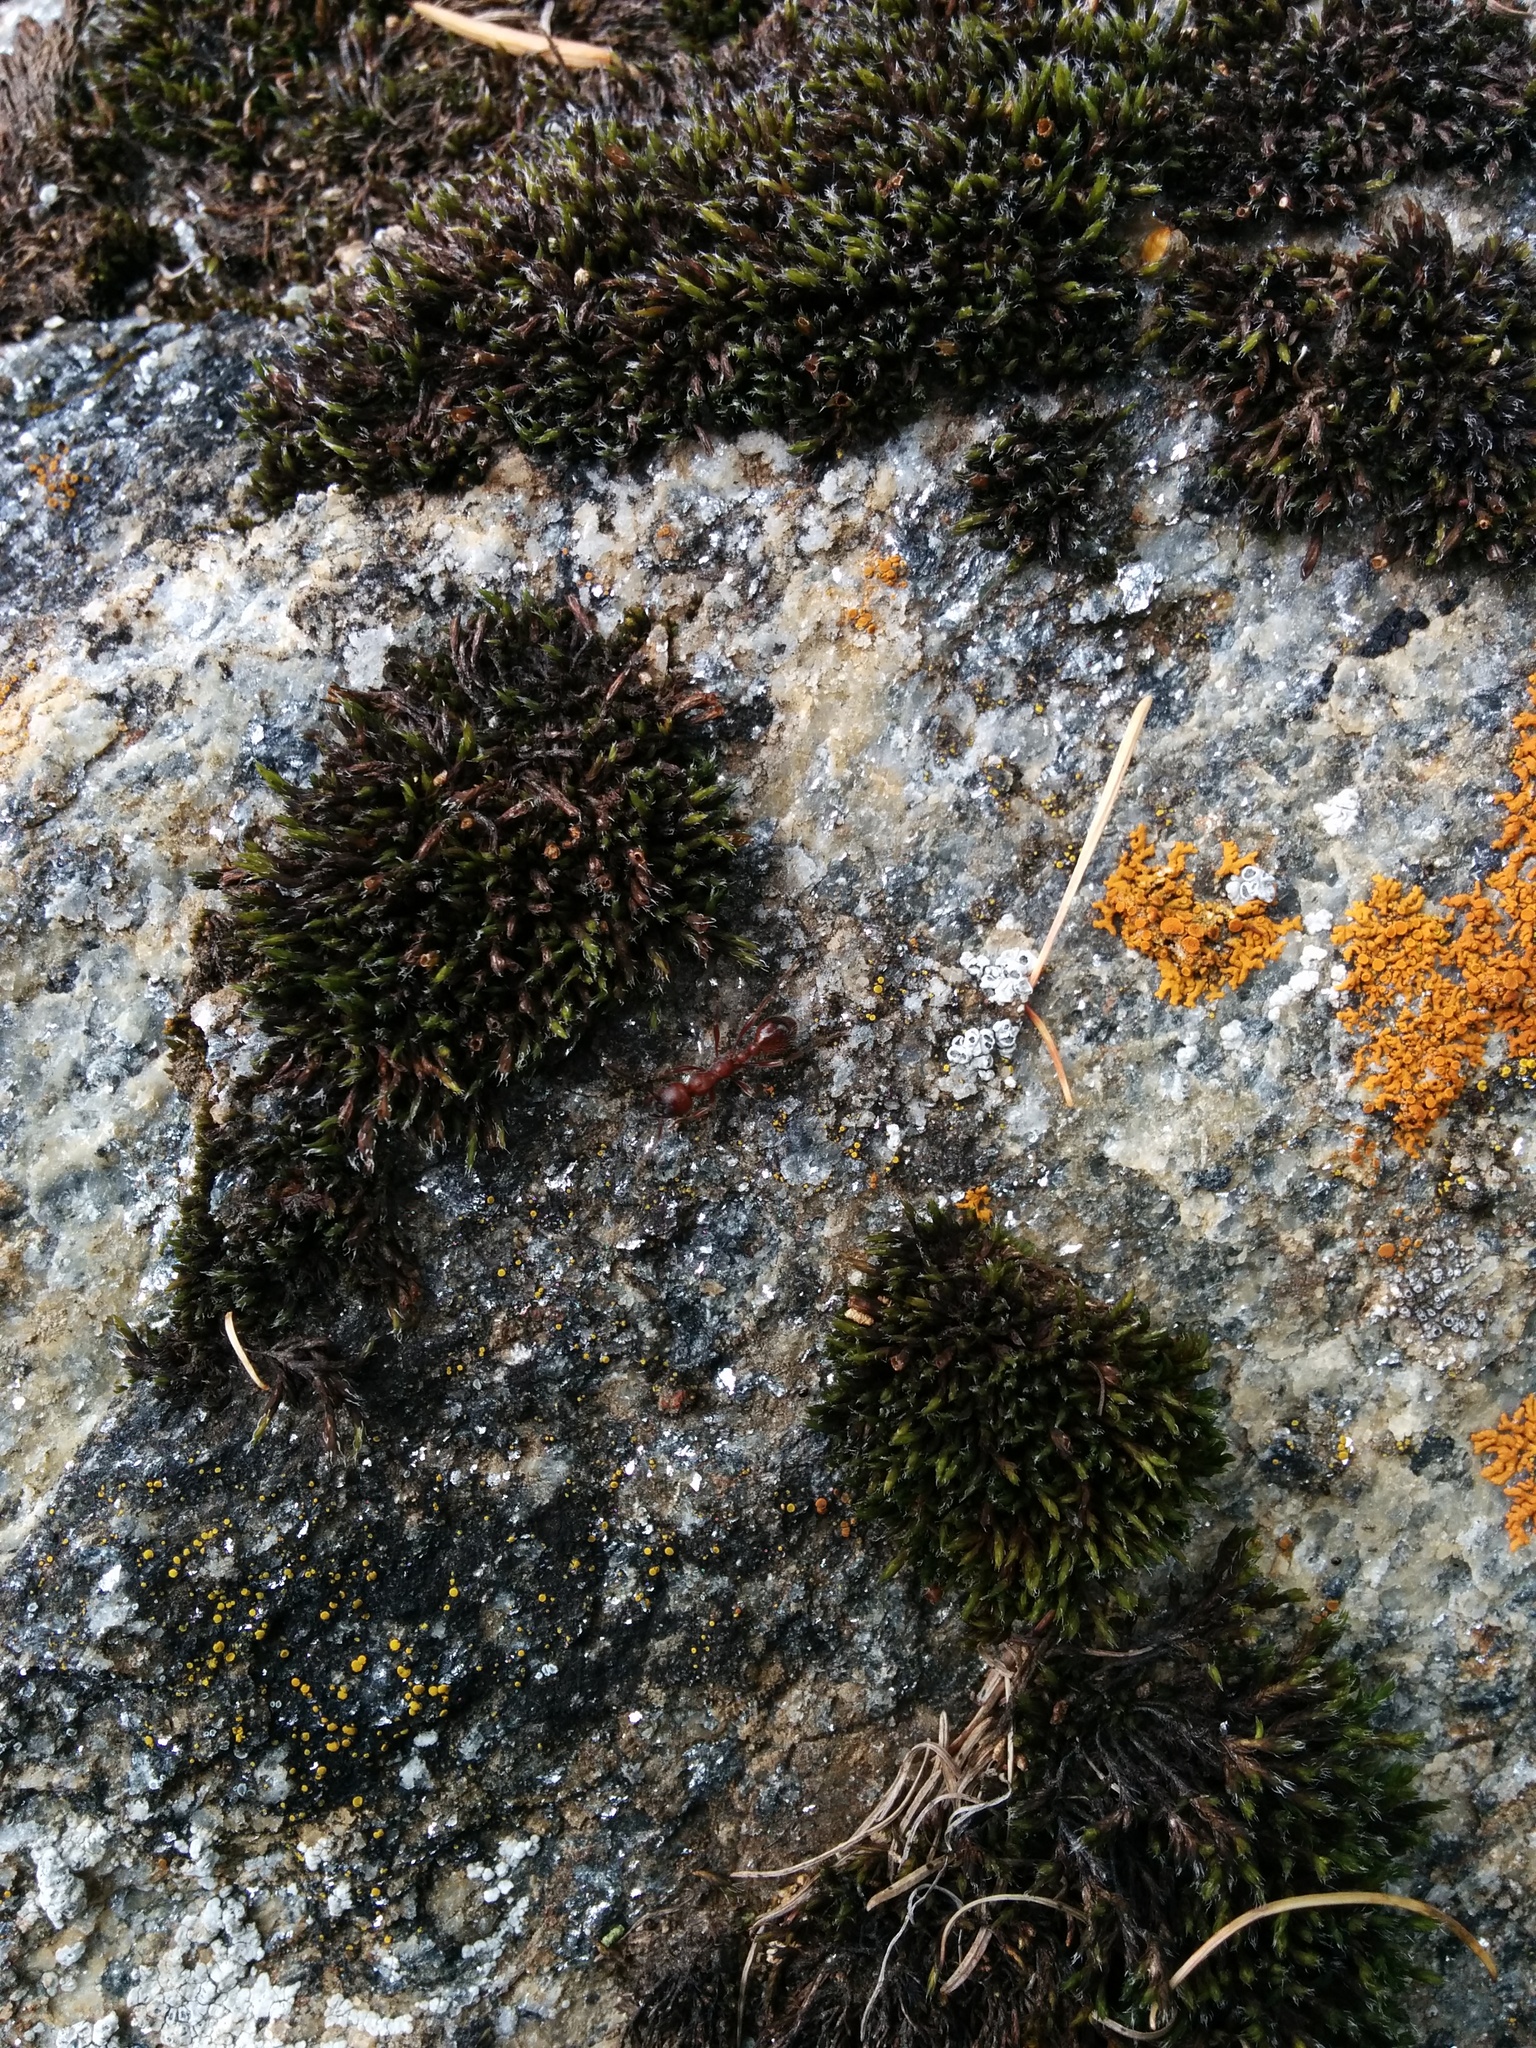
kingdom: Animalia
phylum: Arthropoda
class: Insecta
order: Hymenoptera
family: Formicidae
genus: Manica
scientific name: Manica rubida
